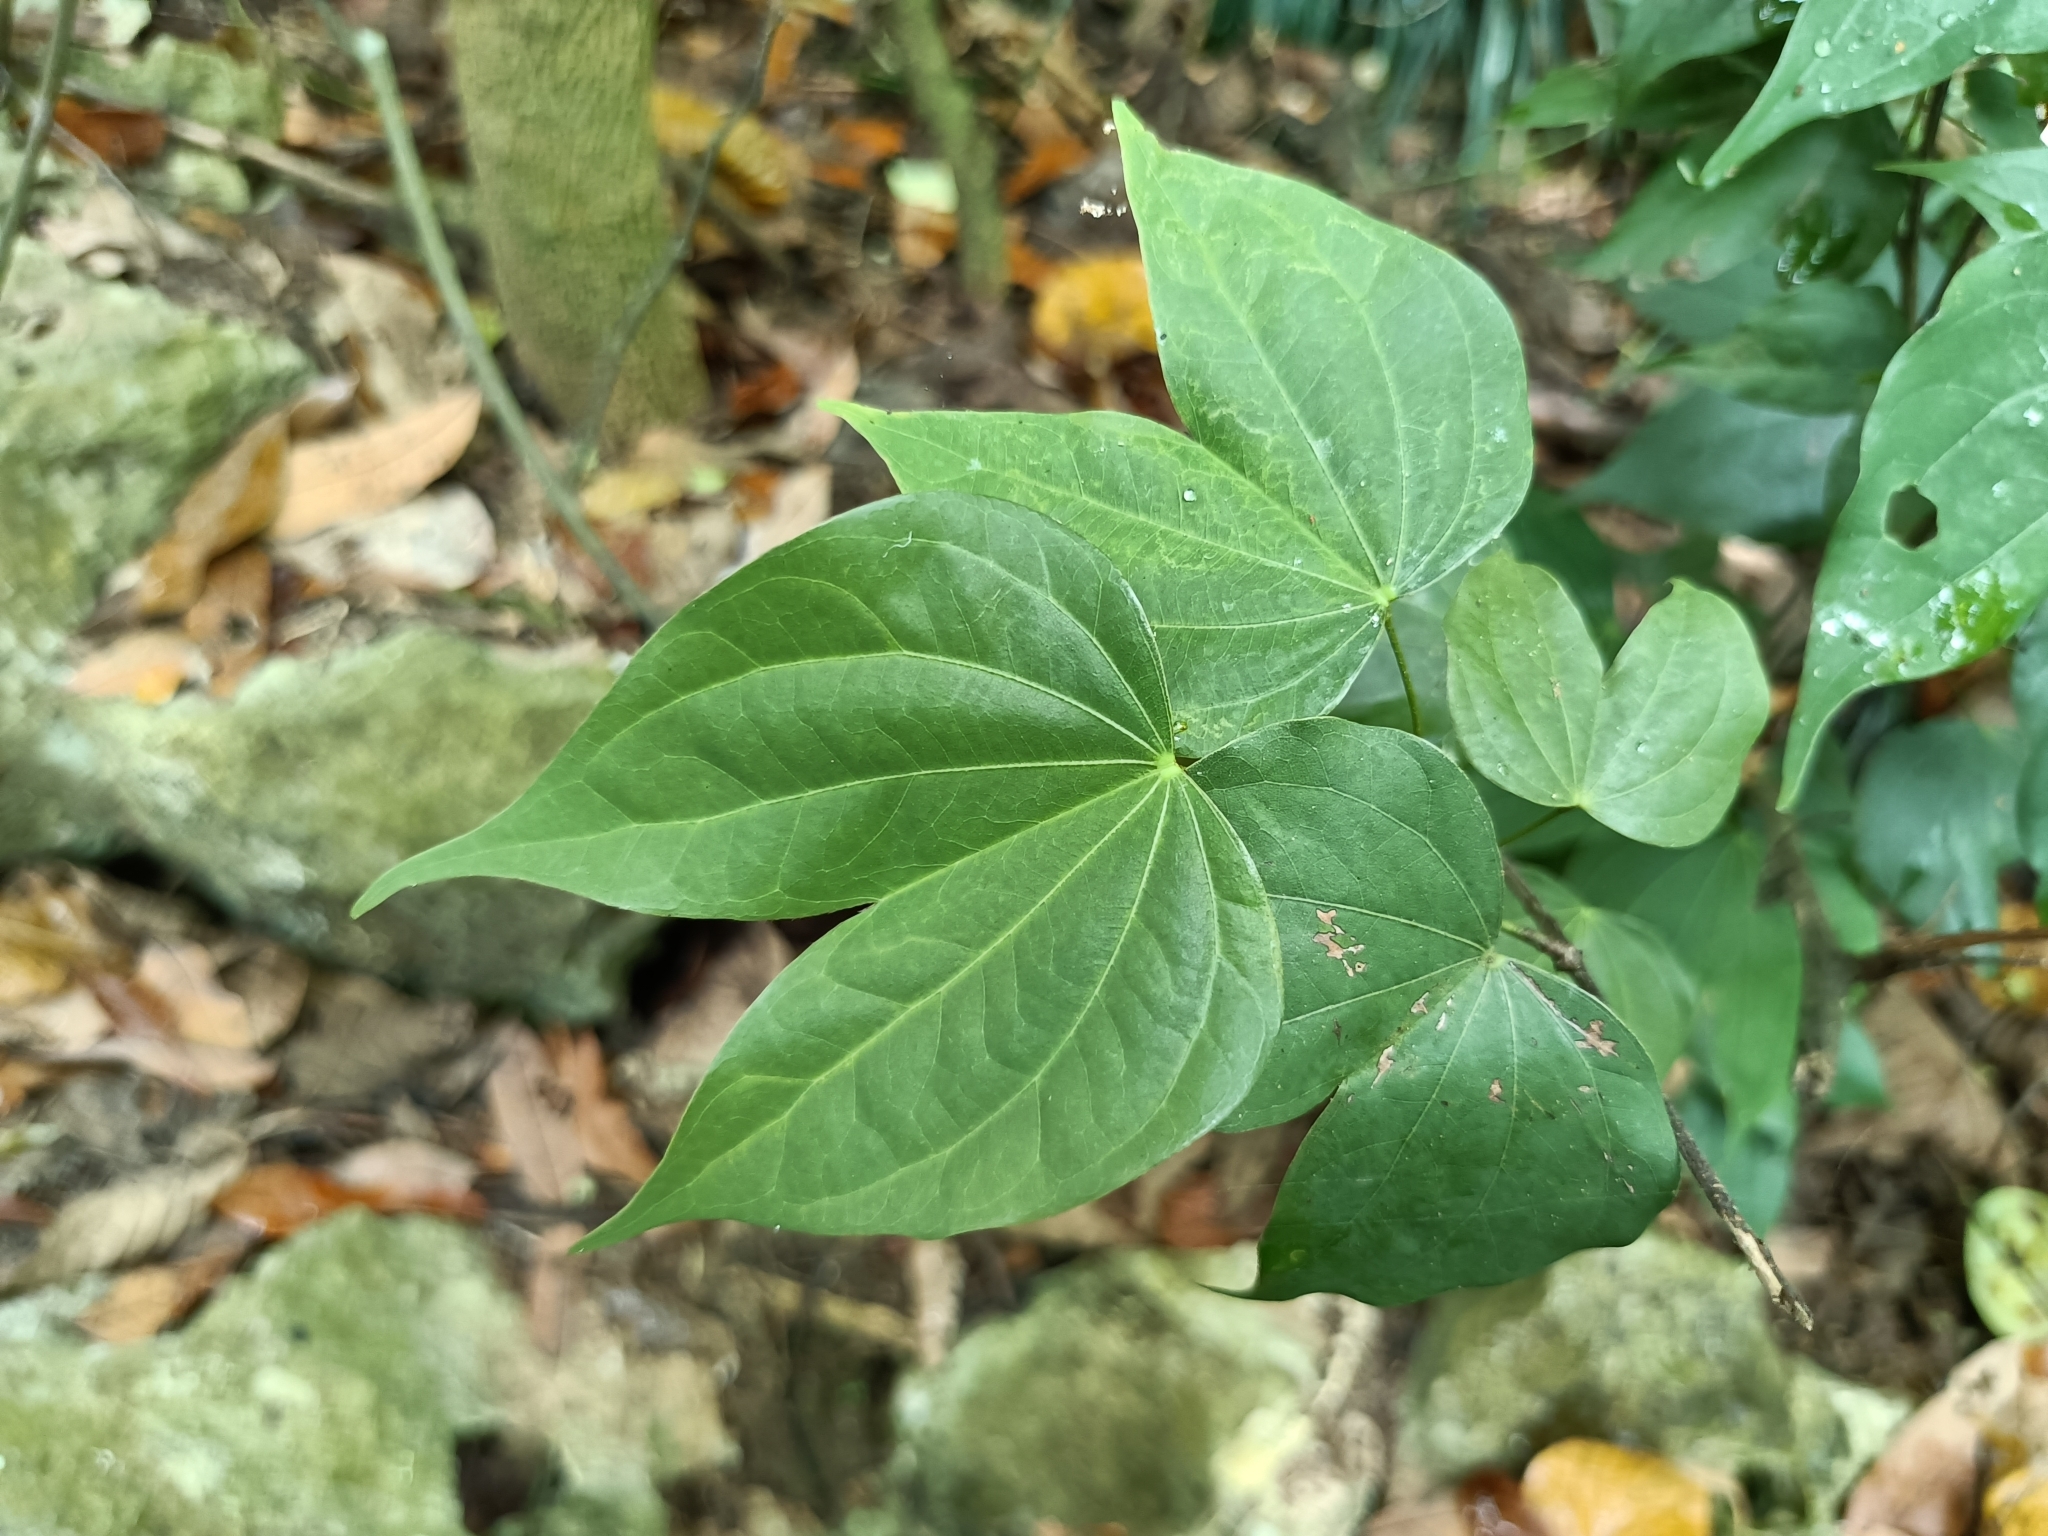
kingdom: Plantae
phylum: Tracheophyta
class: Magnoliopsida
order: Fabales
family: Fabaceae
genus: Phanera
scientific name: Phanera championii
